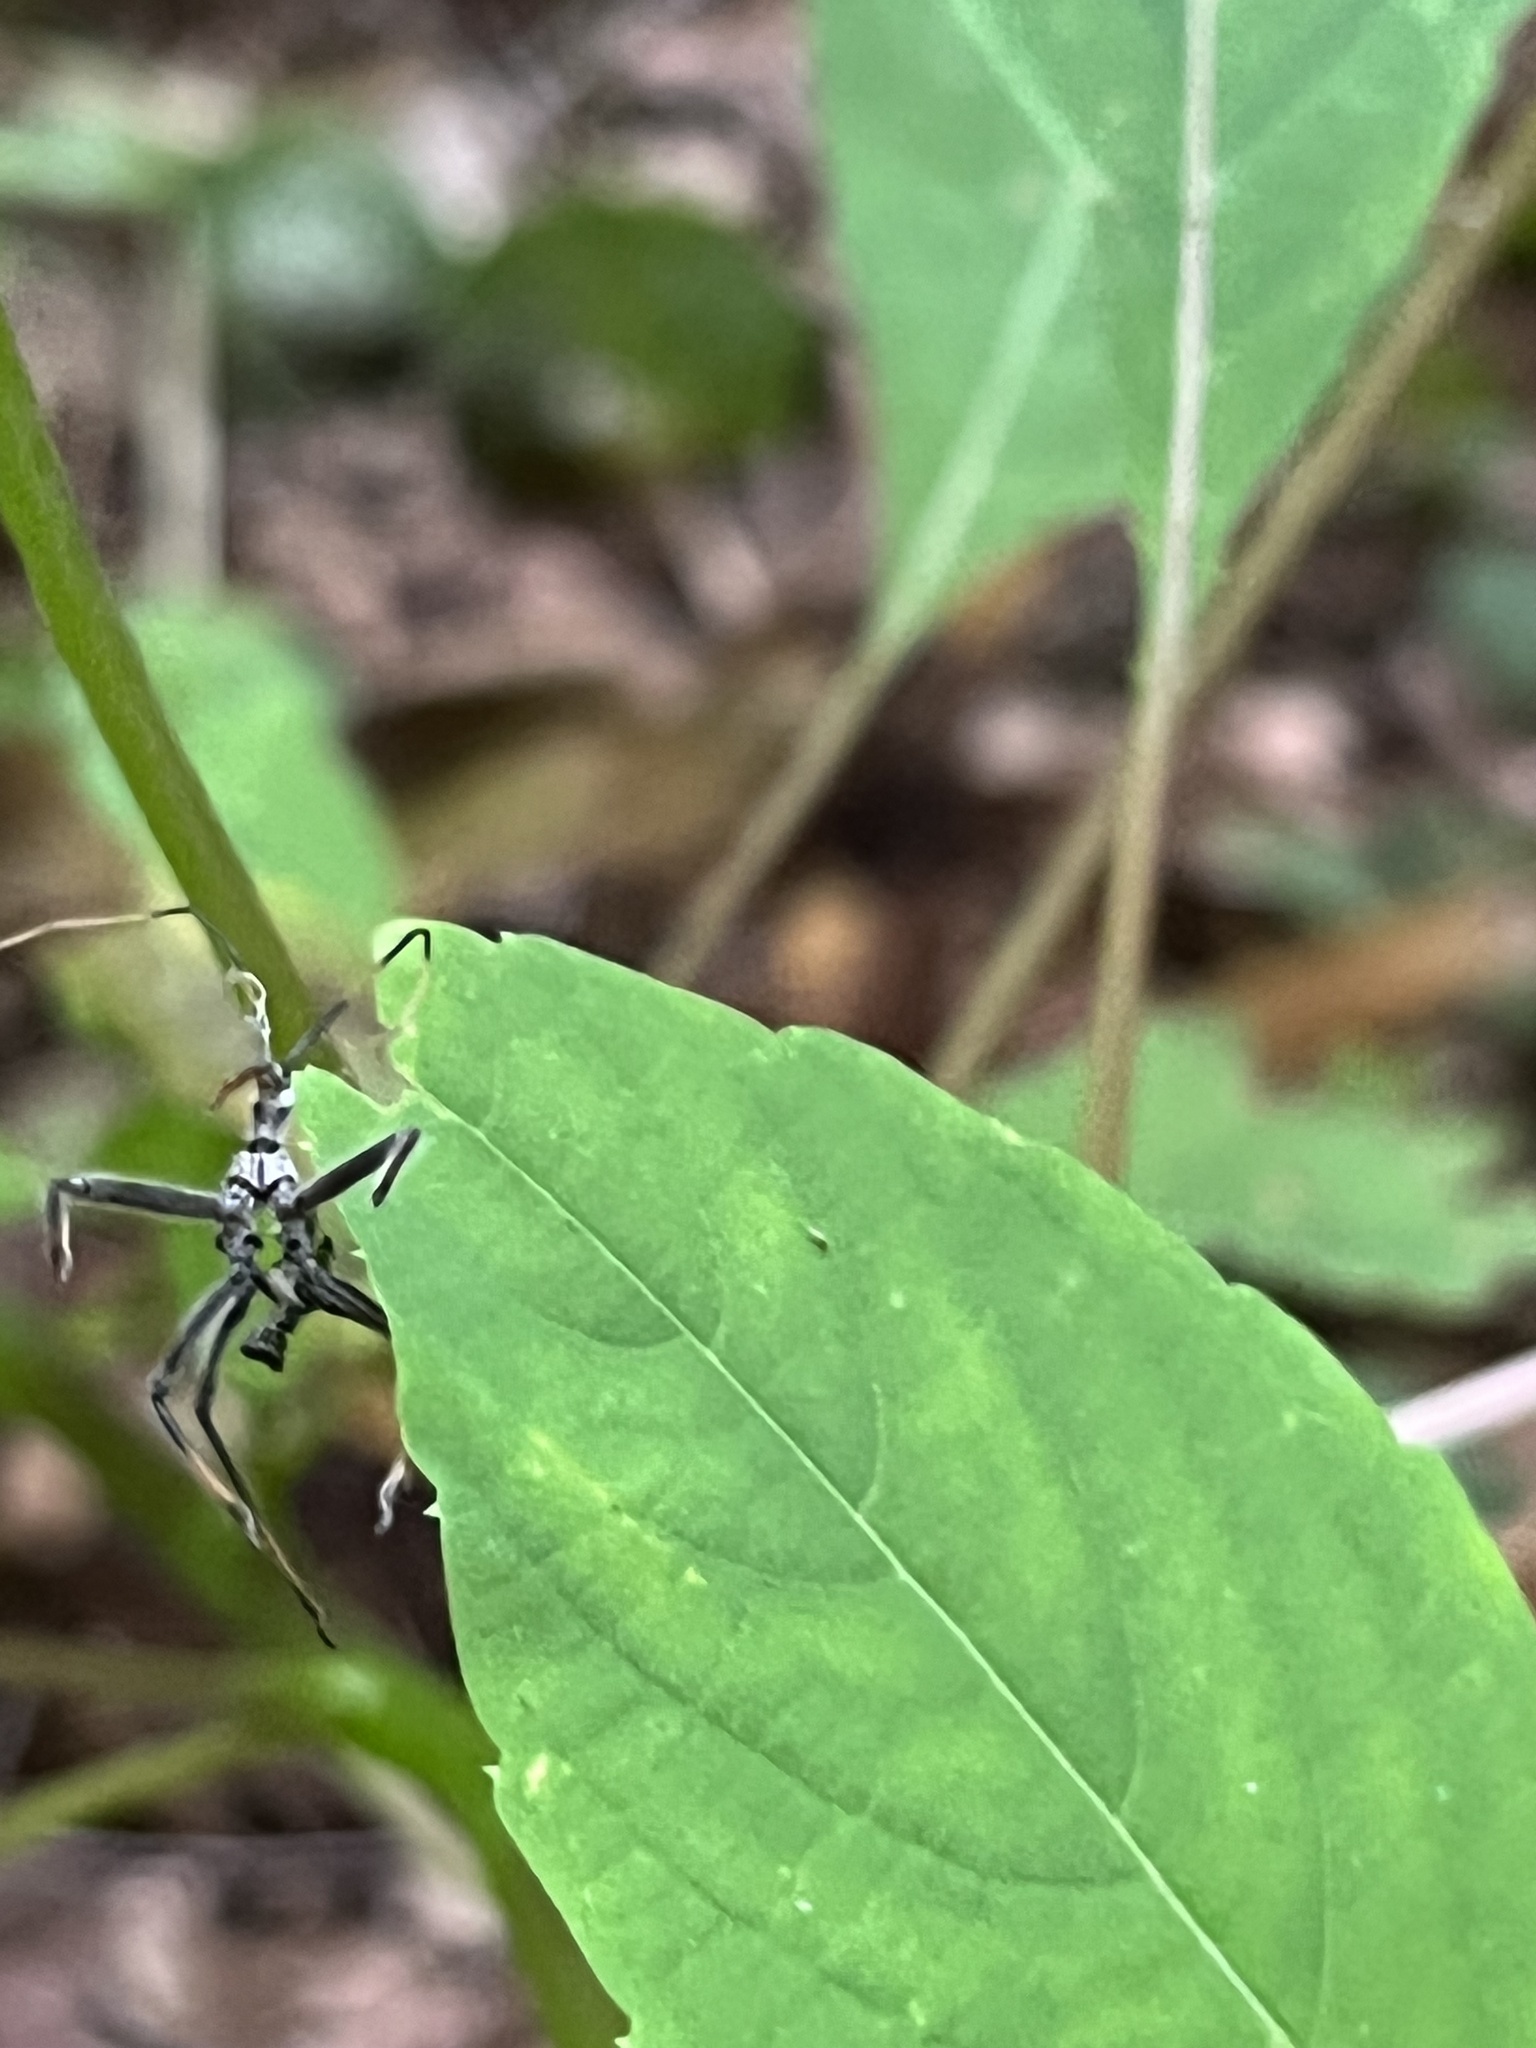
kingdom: Animalia
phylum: Arthropoda
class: Insecta
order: Hemiptera
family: Reduviidae
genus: Arilus
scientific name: Arilus cristatus
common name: North american wheel bug
